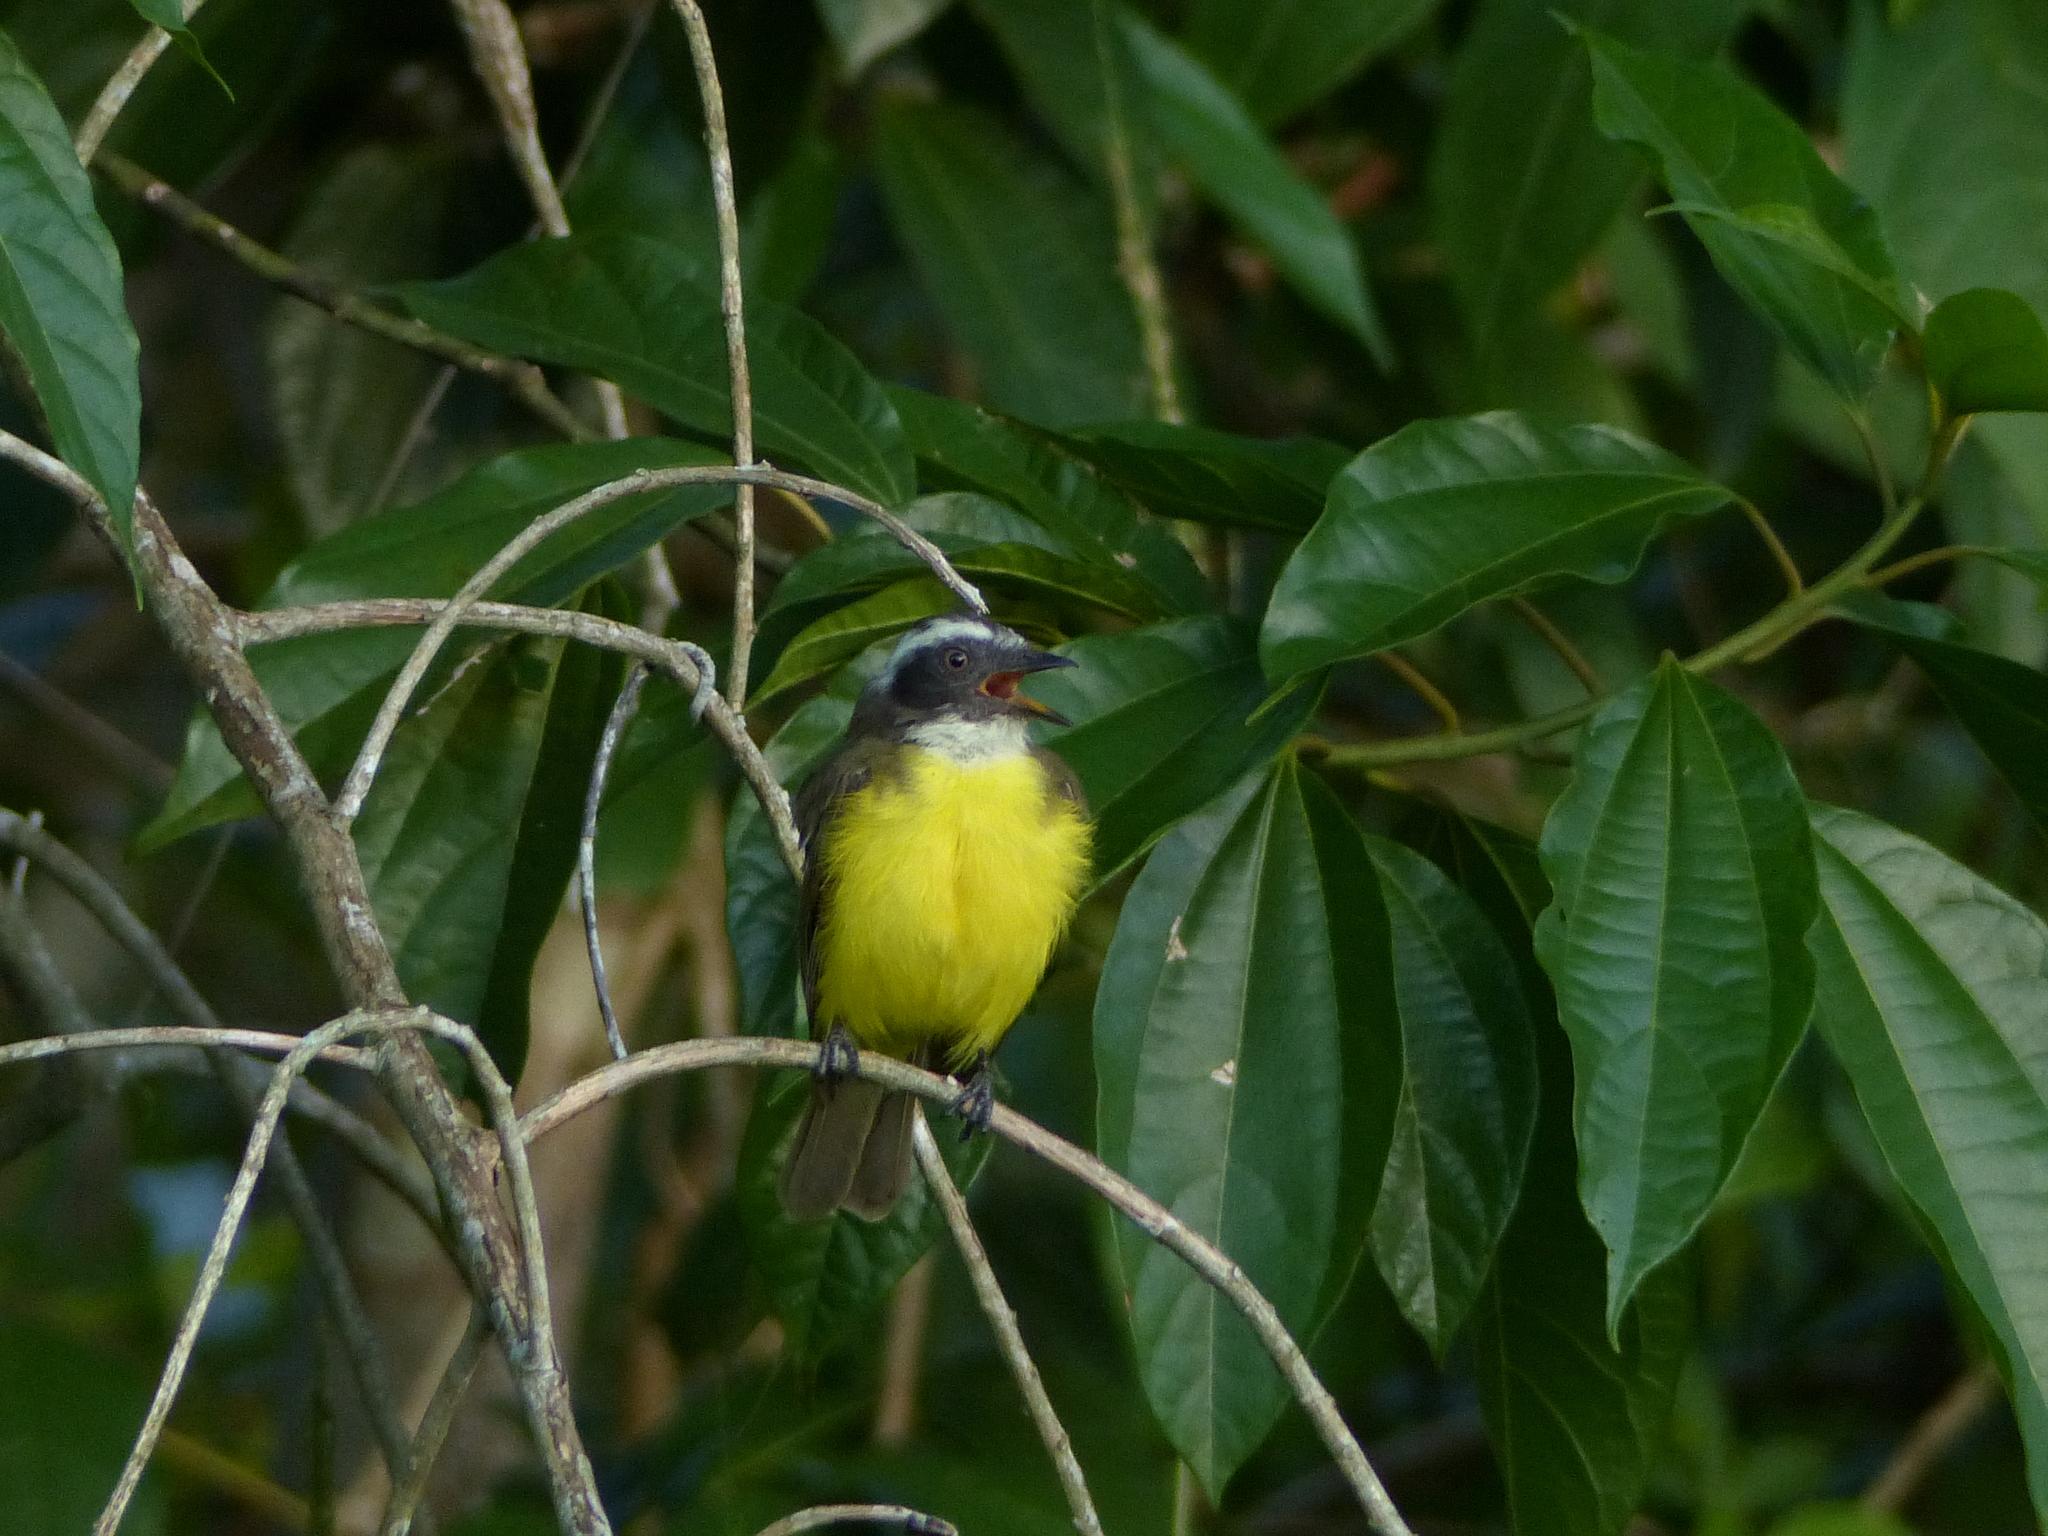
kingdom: Animalia
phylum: Chordata
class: Aves
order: Passeriformes
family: Tyrannidae
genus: Myiozetetes
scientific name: Myiozetetes similis
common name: Social flycatcher
